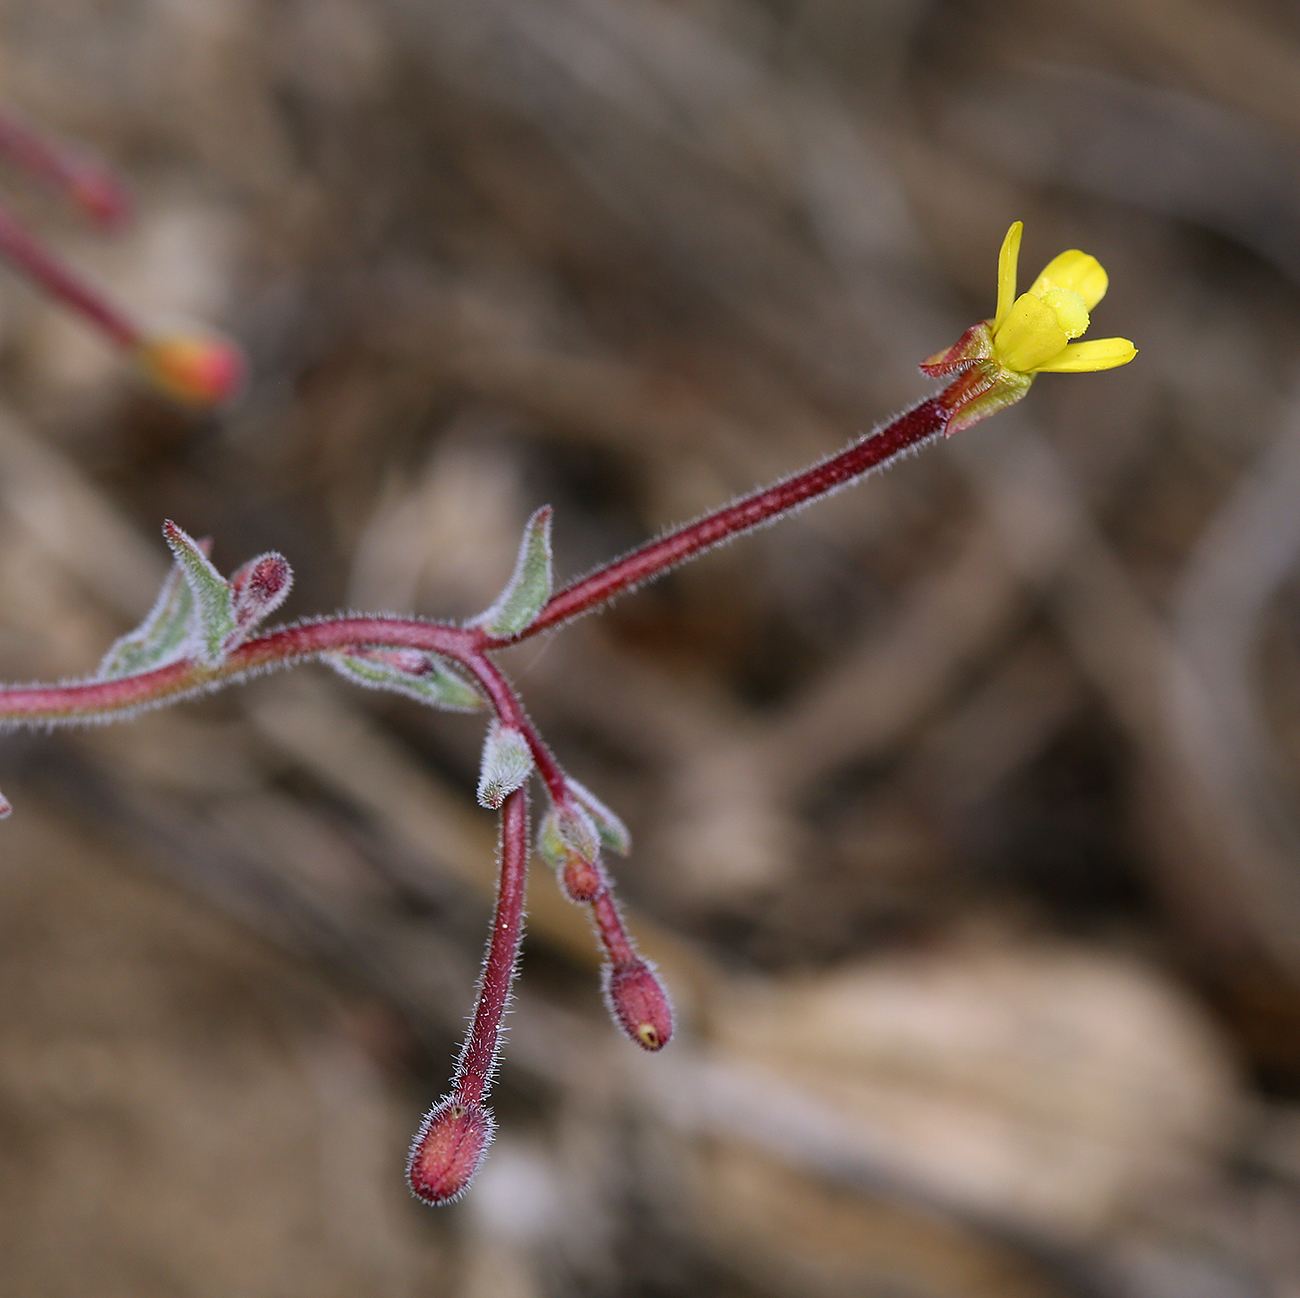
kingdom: Plantae
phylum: Tracheophyta
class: Magnoliopsida
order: Myrtales
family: Onagraceae
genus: Camissonia
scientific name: Camissonia pubens
